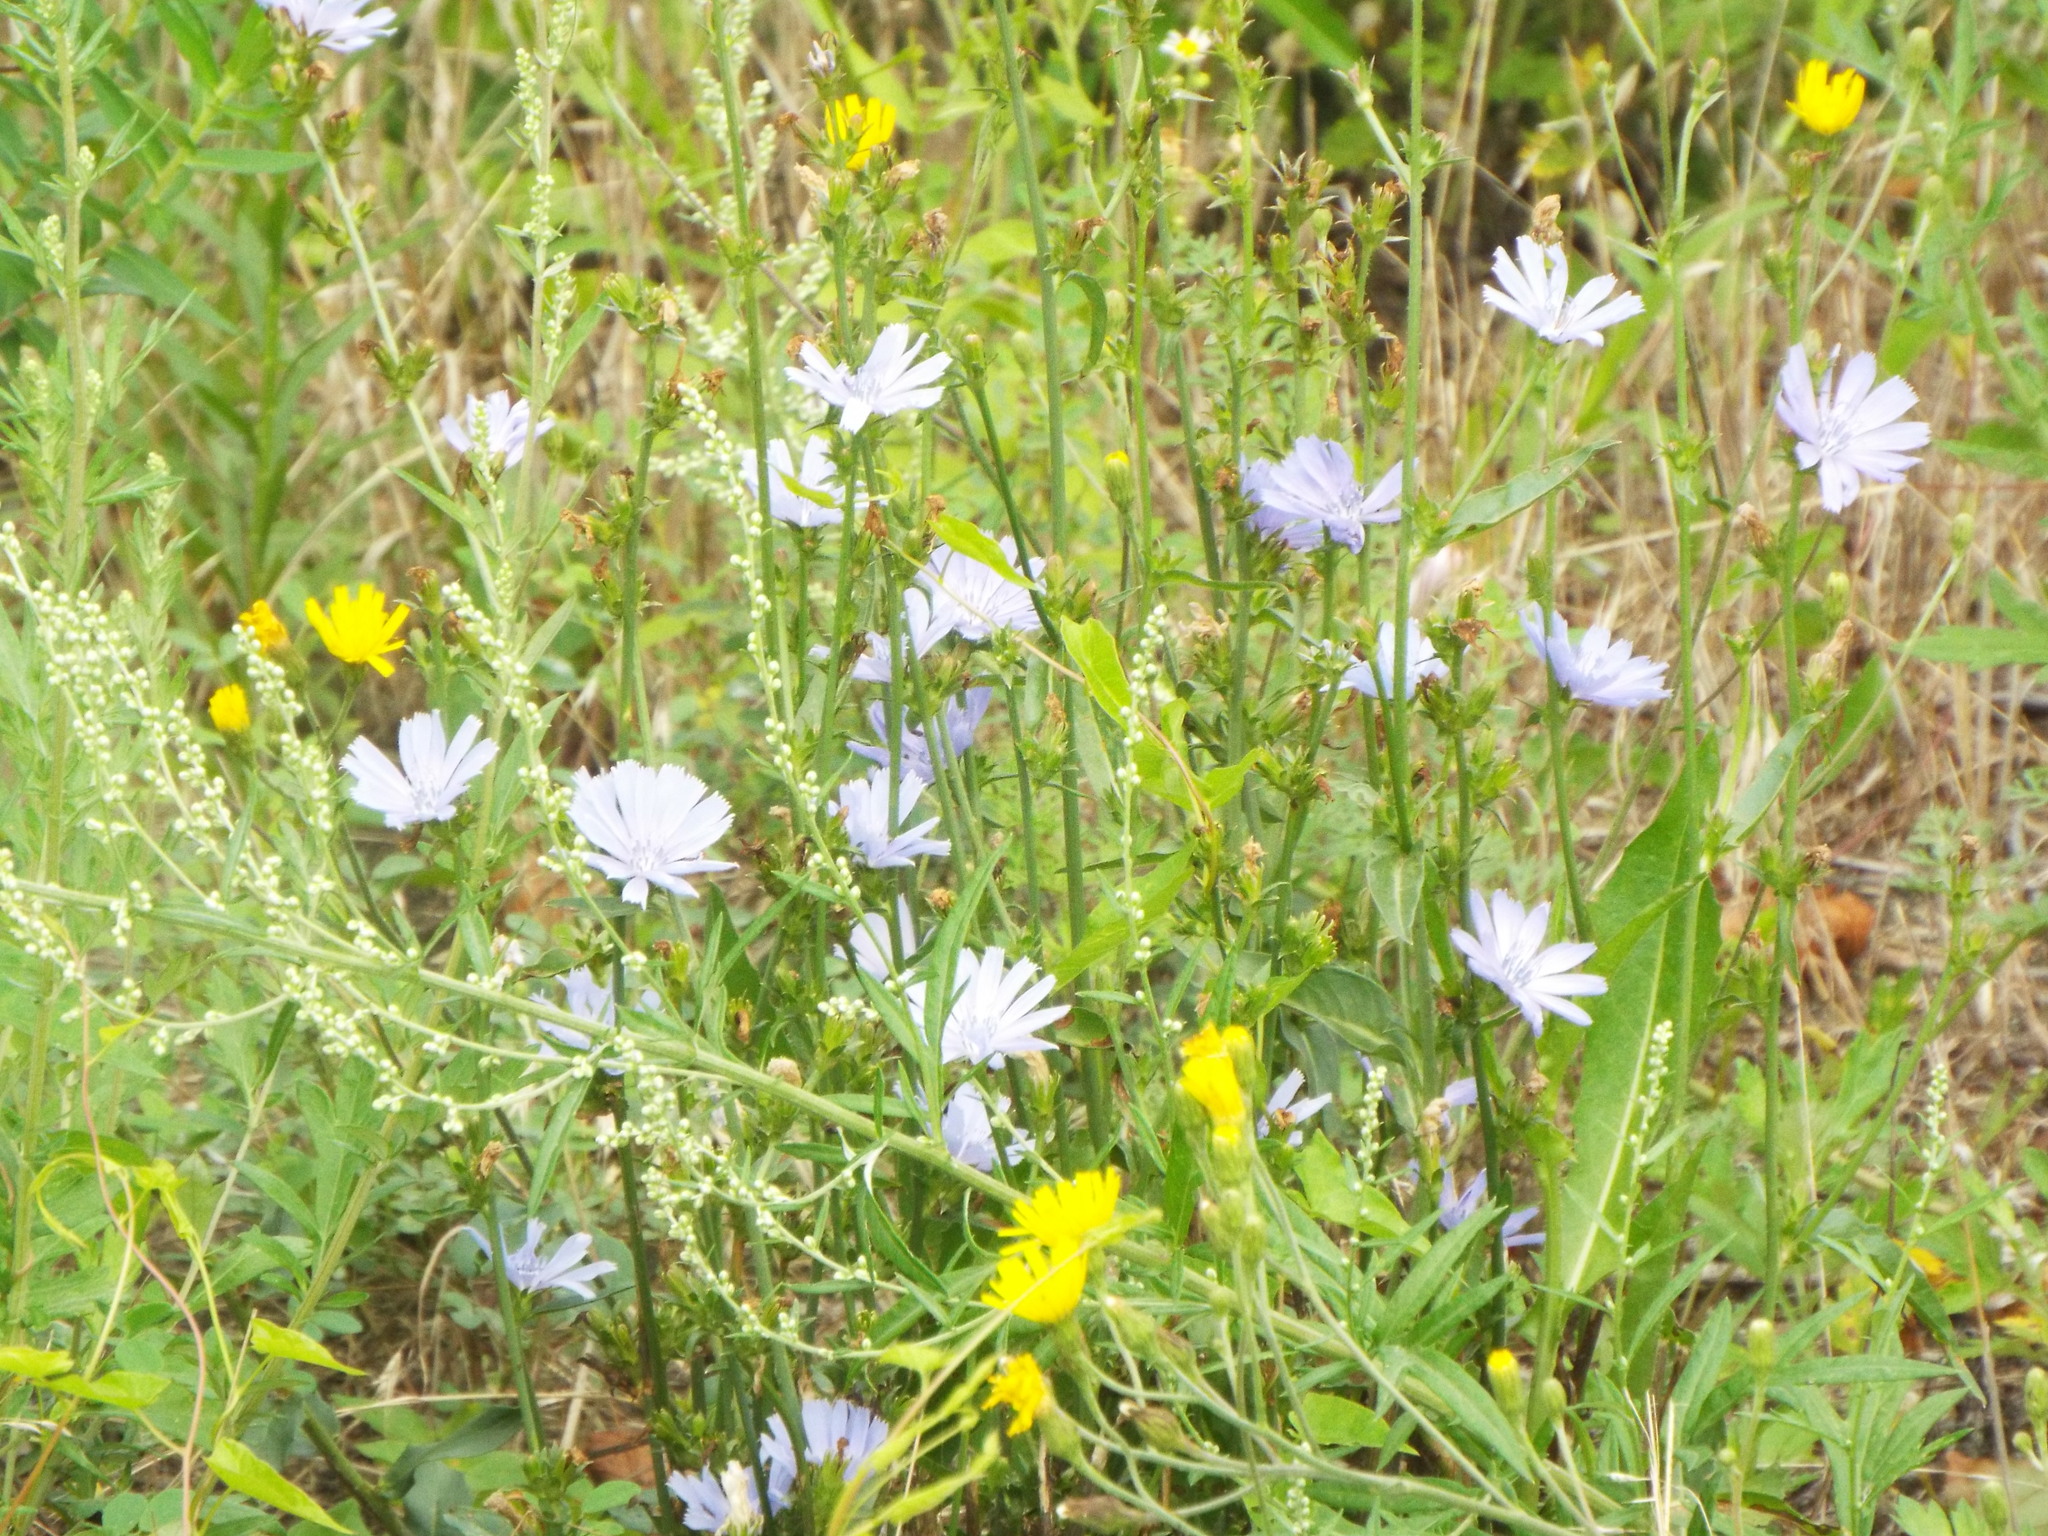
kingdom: Plantae
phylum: Tracheophyta
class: Magnoliopsida
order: Asterales
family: Asteraceae
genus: Cichorium
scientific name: Cichorium intybus
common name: Chicory
